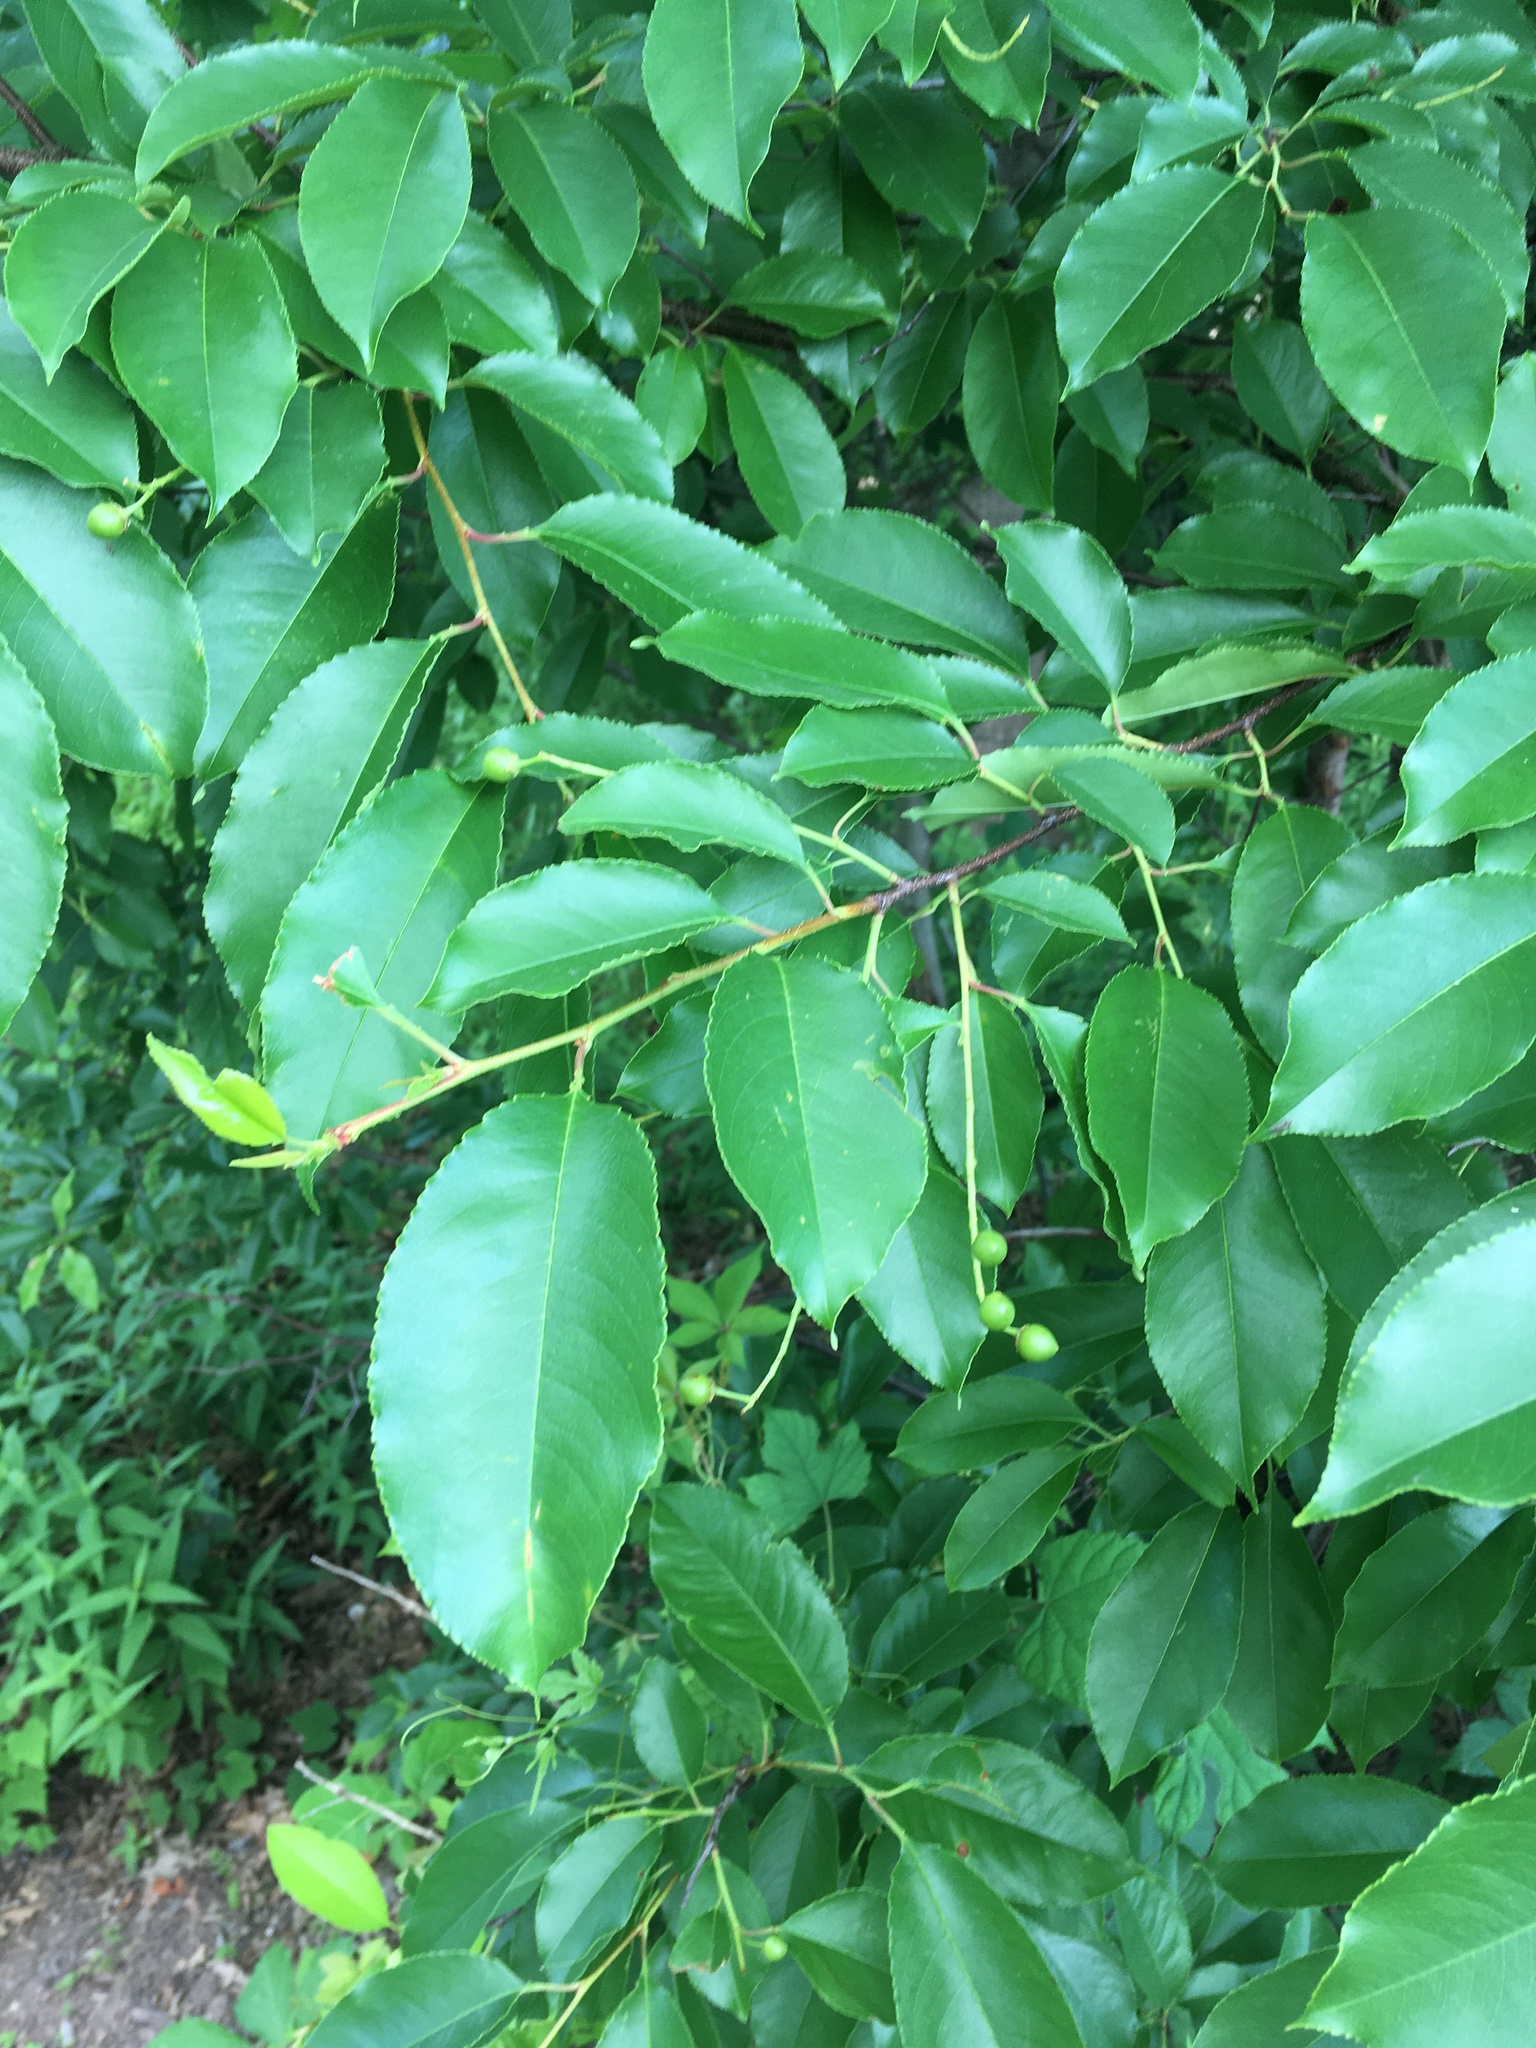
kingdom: Plantae
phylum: Tracheophyta
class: Magnoliopsida
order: Rosales
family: Rosaceae
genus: Prunus
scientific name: Prunus serotina
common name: Black cherry
